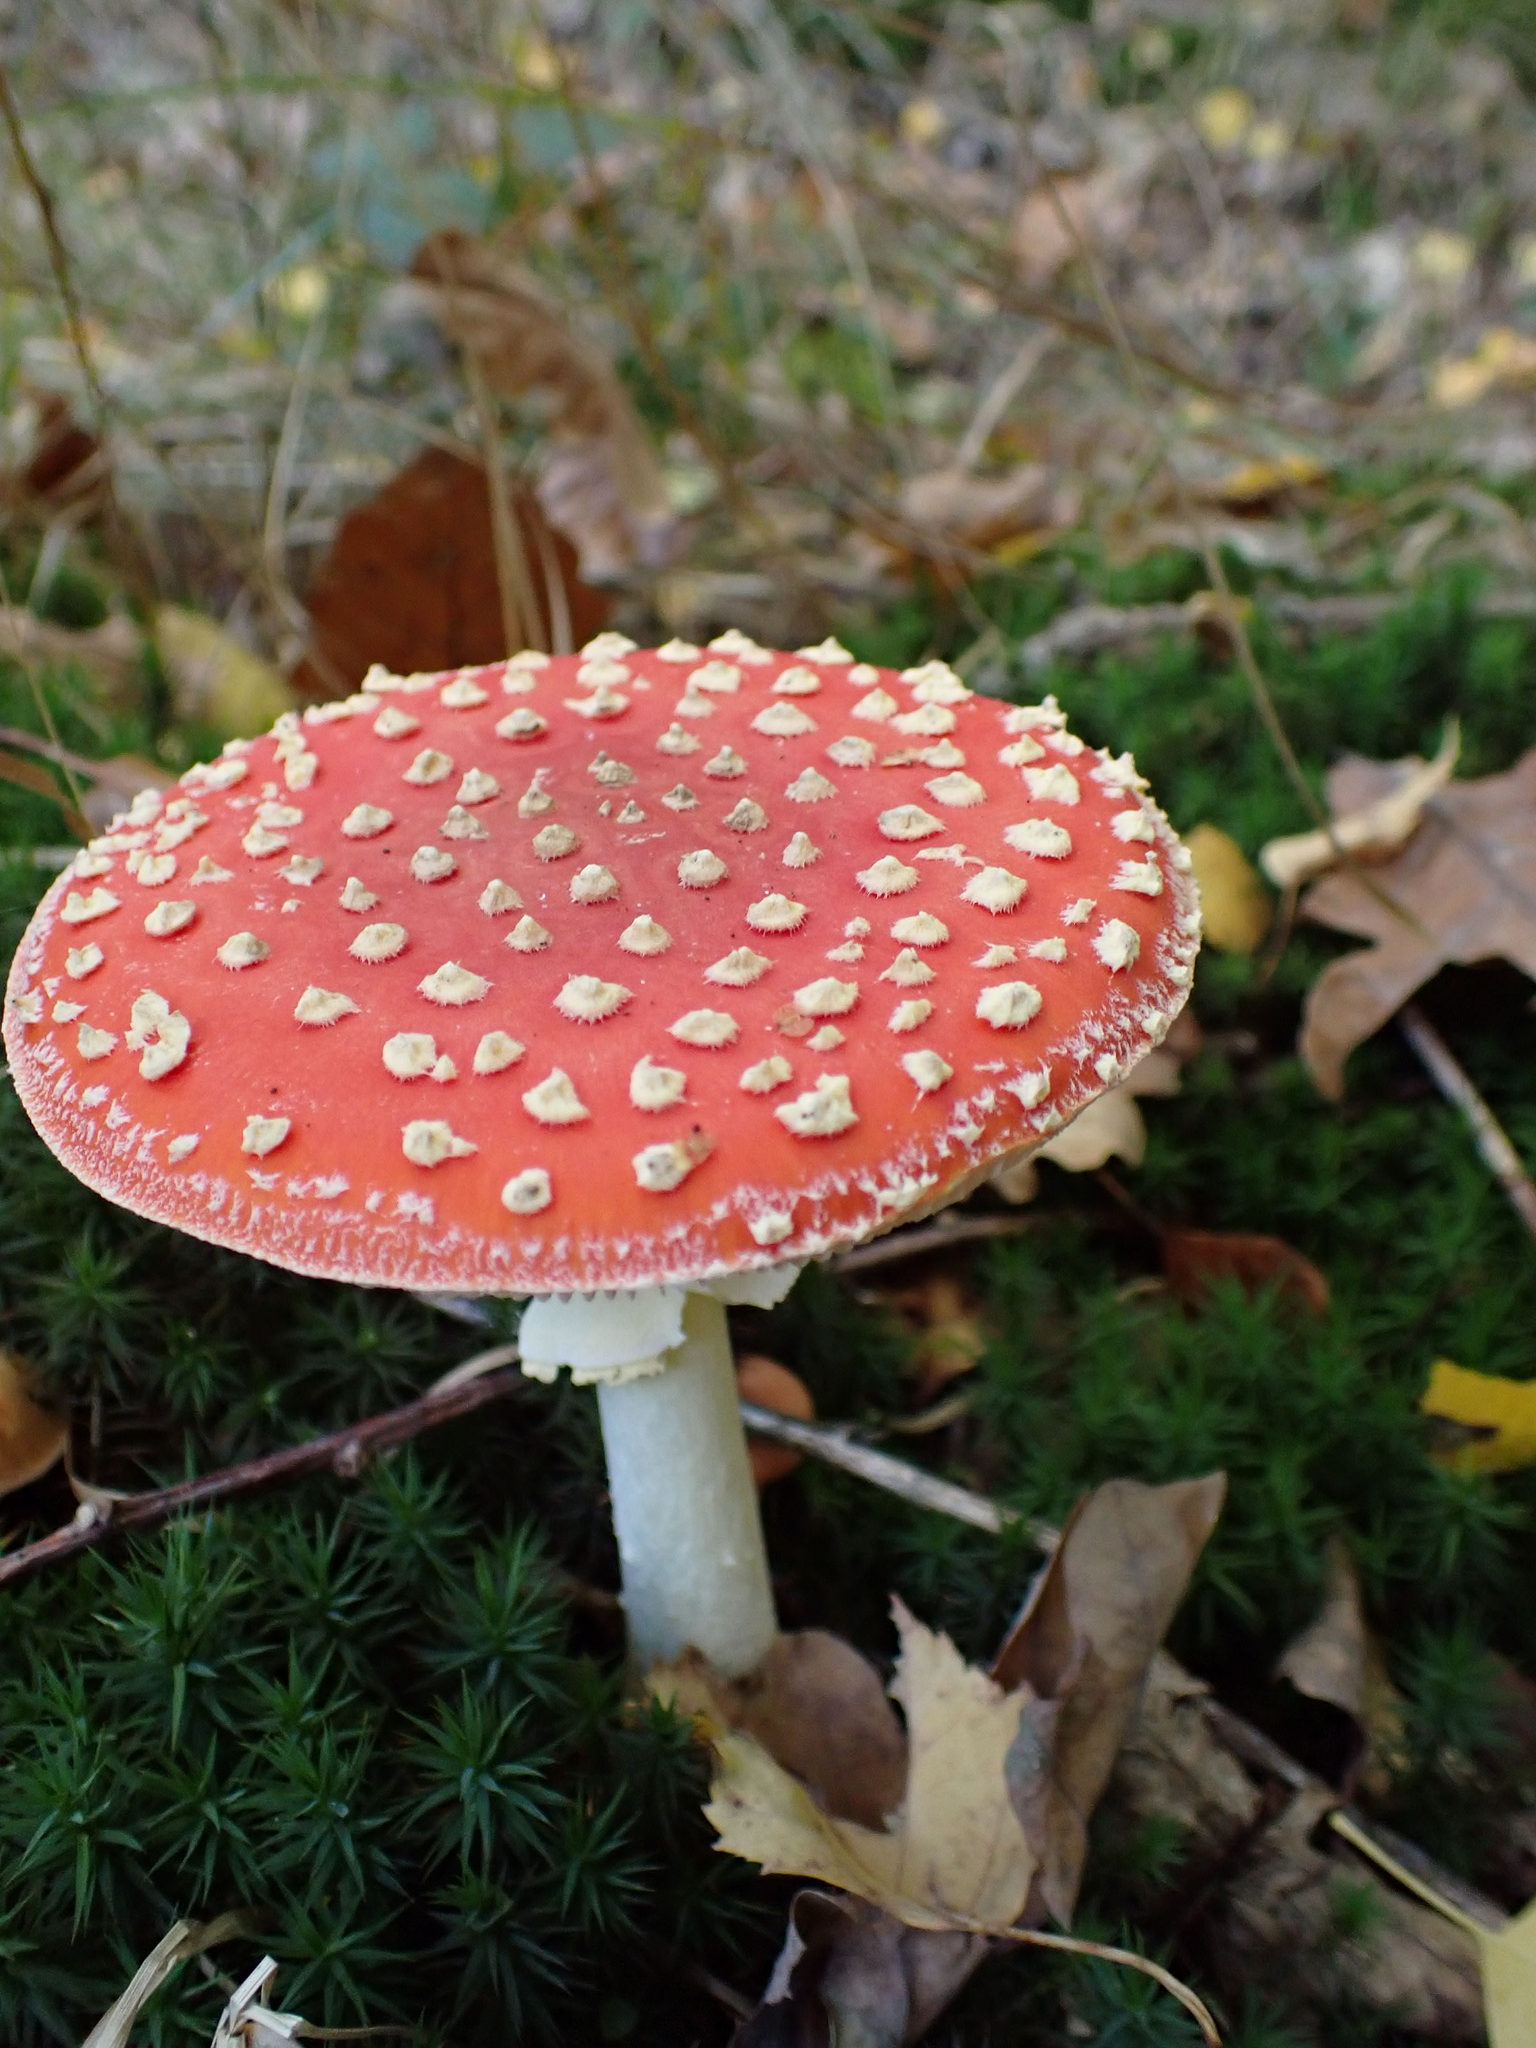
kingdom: Fungi
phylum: Basidiomycota
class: Agaricomycetes
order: Agaricales
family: Amanitaceae
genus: Amanita
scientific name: Amanita muscaria
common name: Fly agaric
